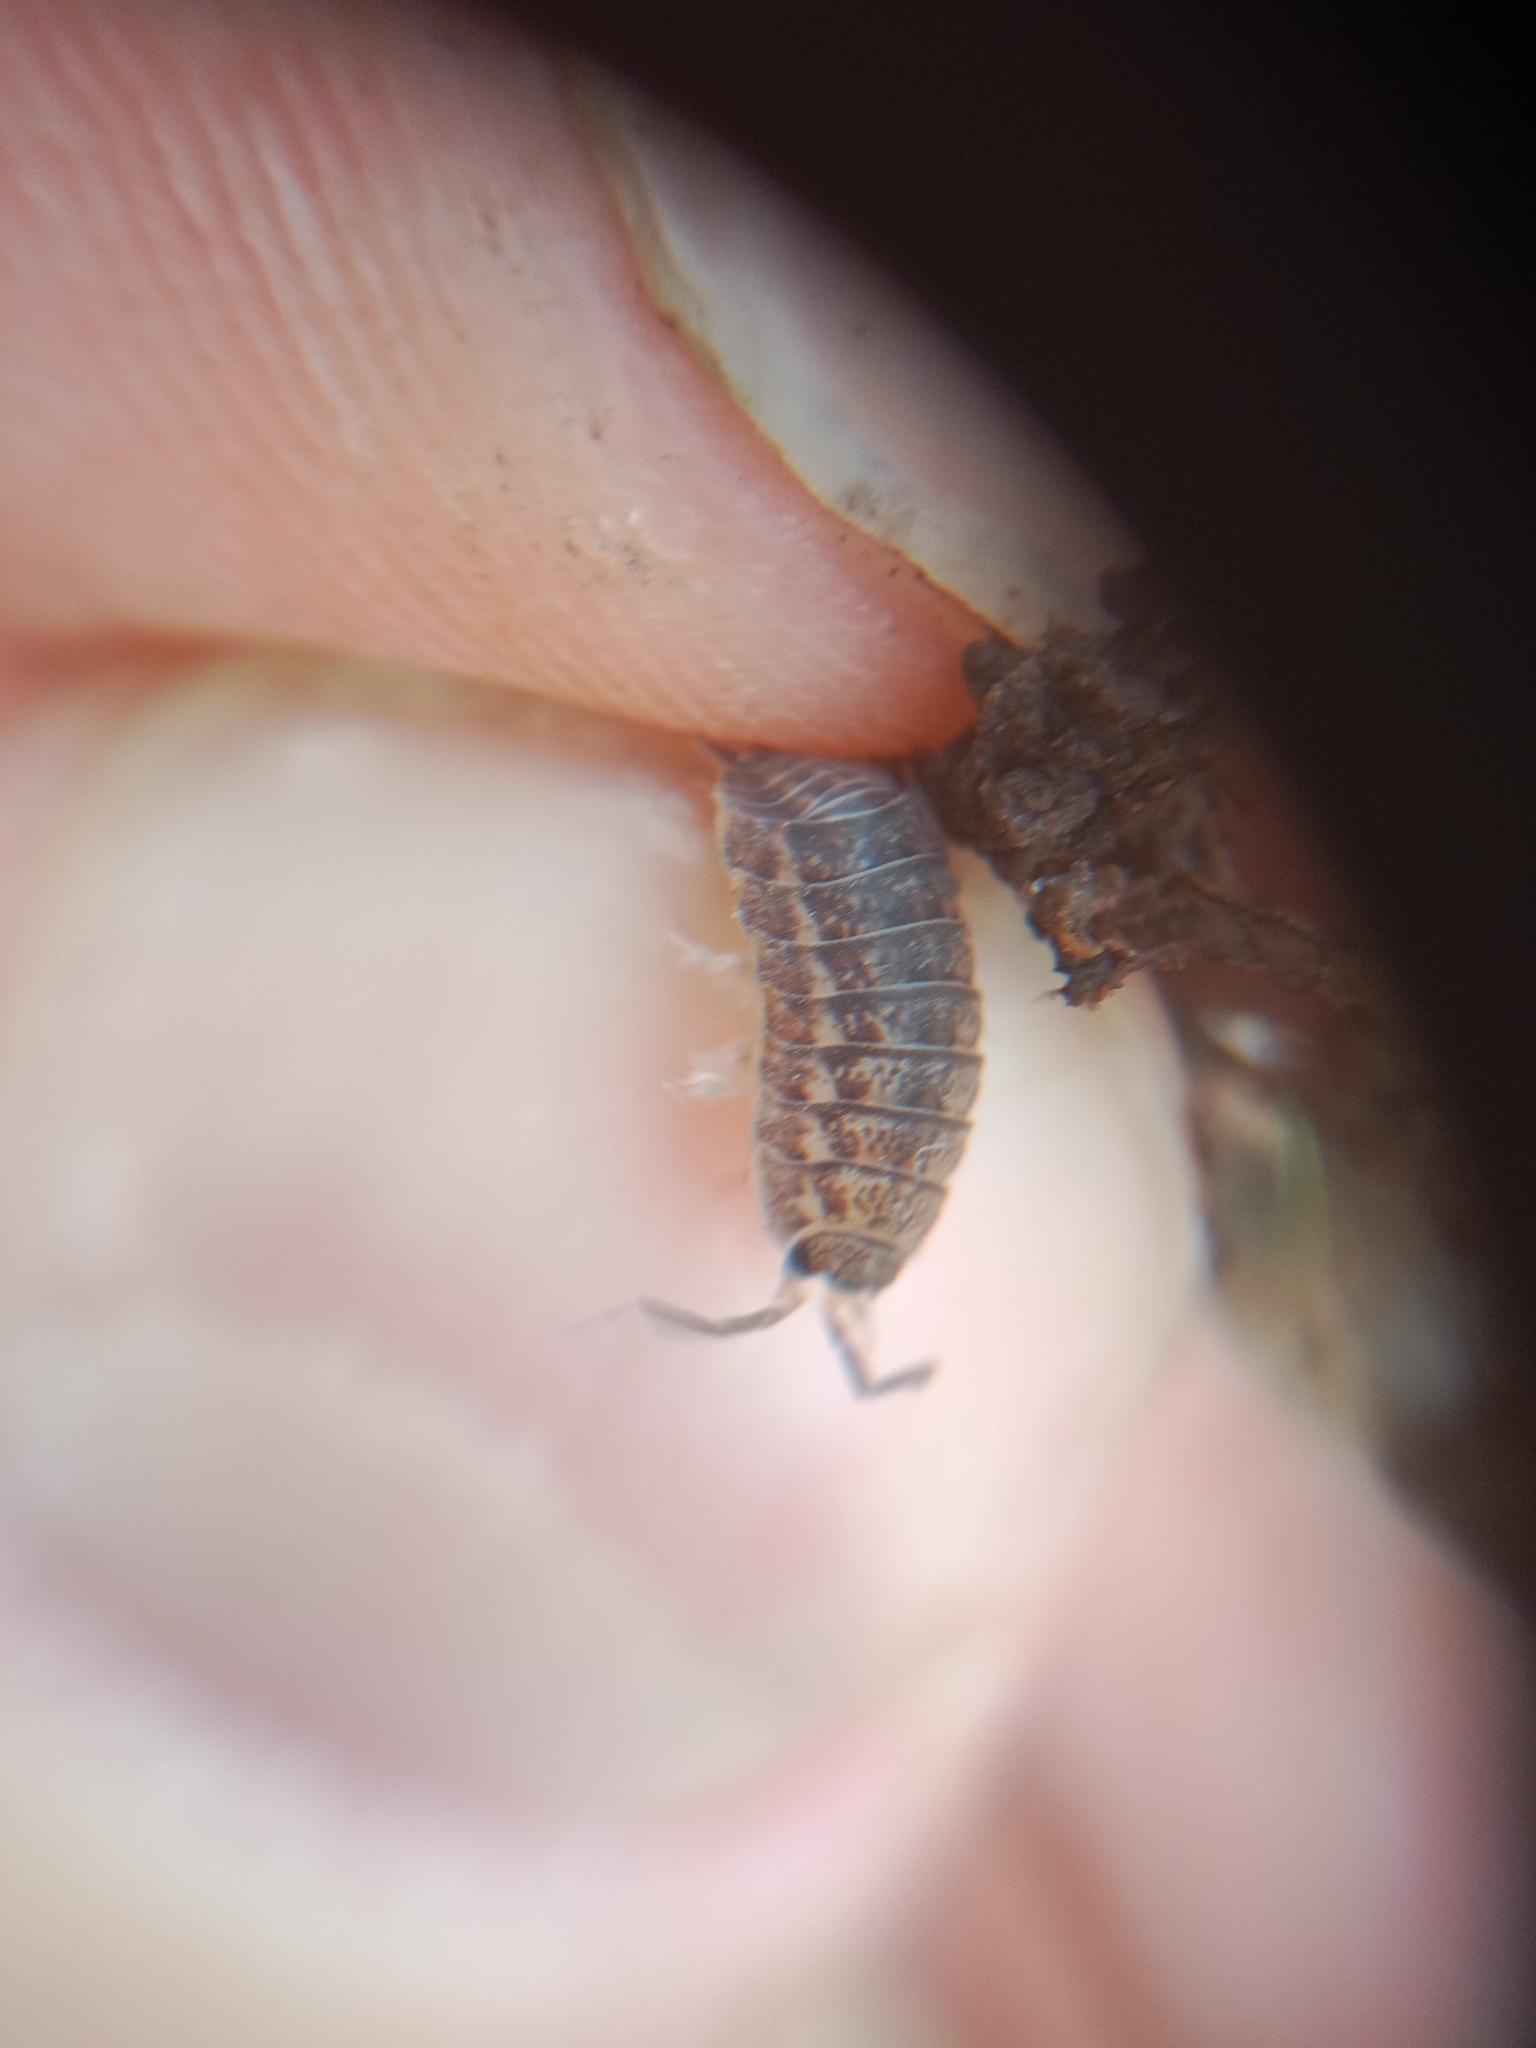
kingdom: Animalia
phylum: Arthropoda
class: Malacostraca
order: Isopoda
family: Trachelipodidae
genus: Trachelipus
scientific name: Trachelipus rathkii
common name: Isopod
